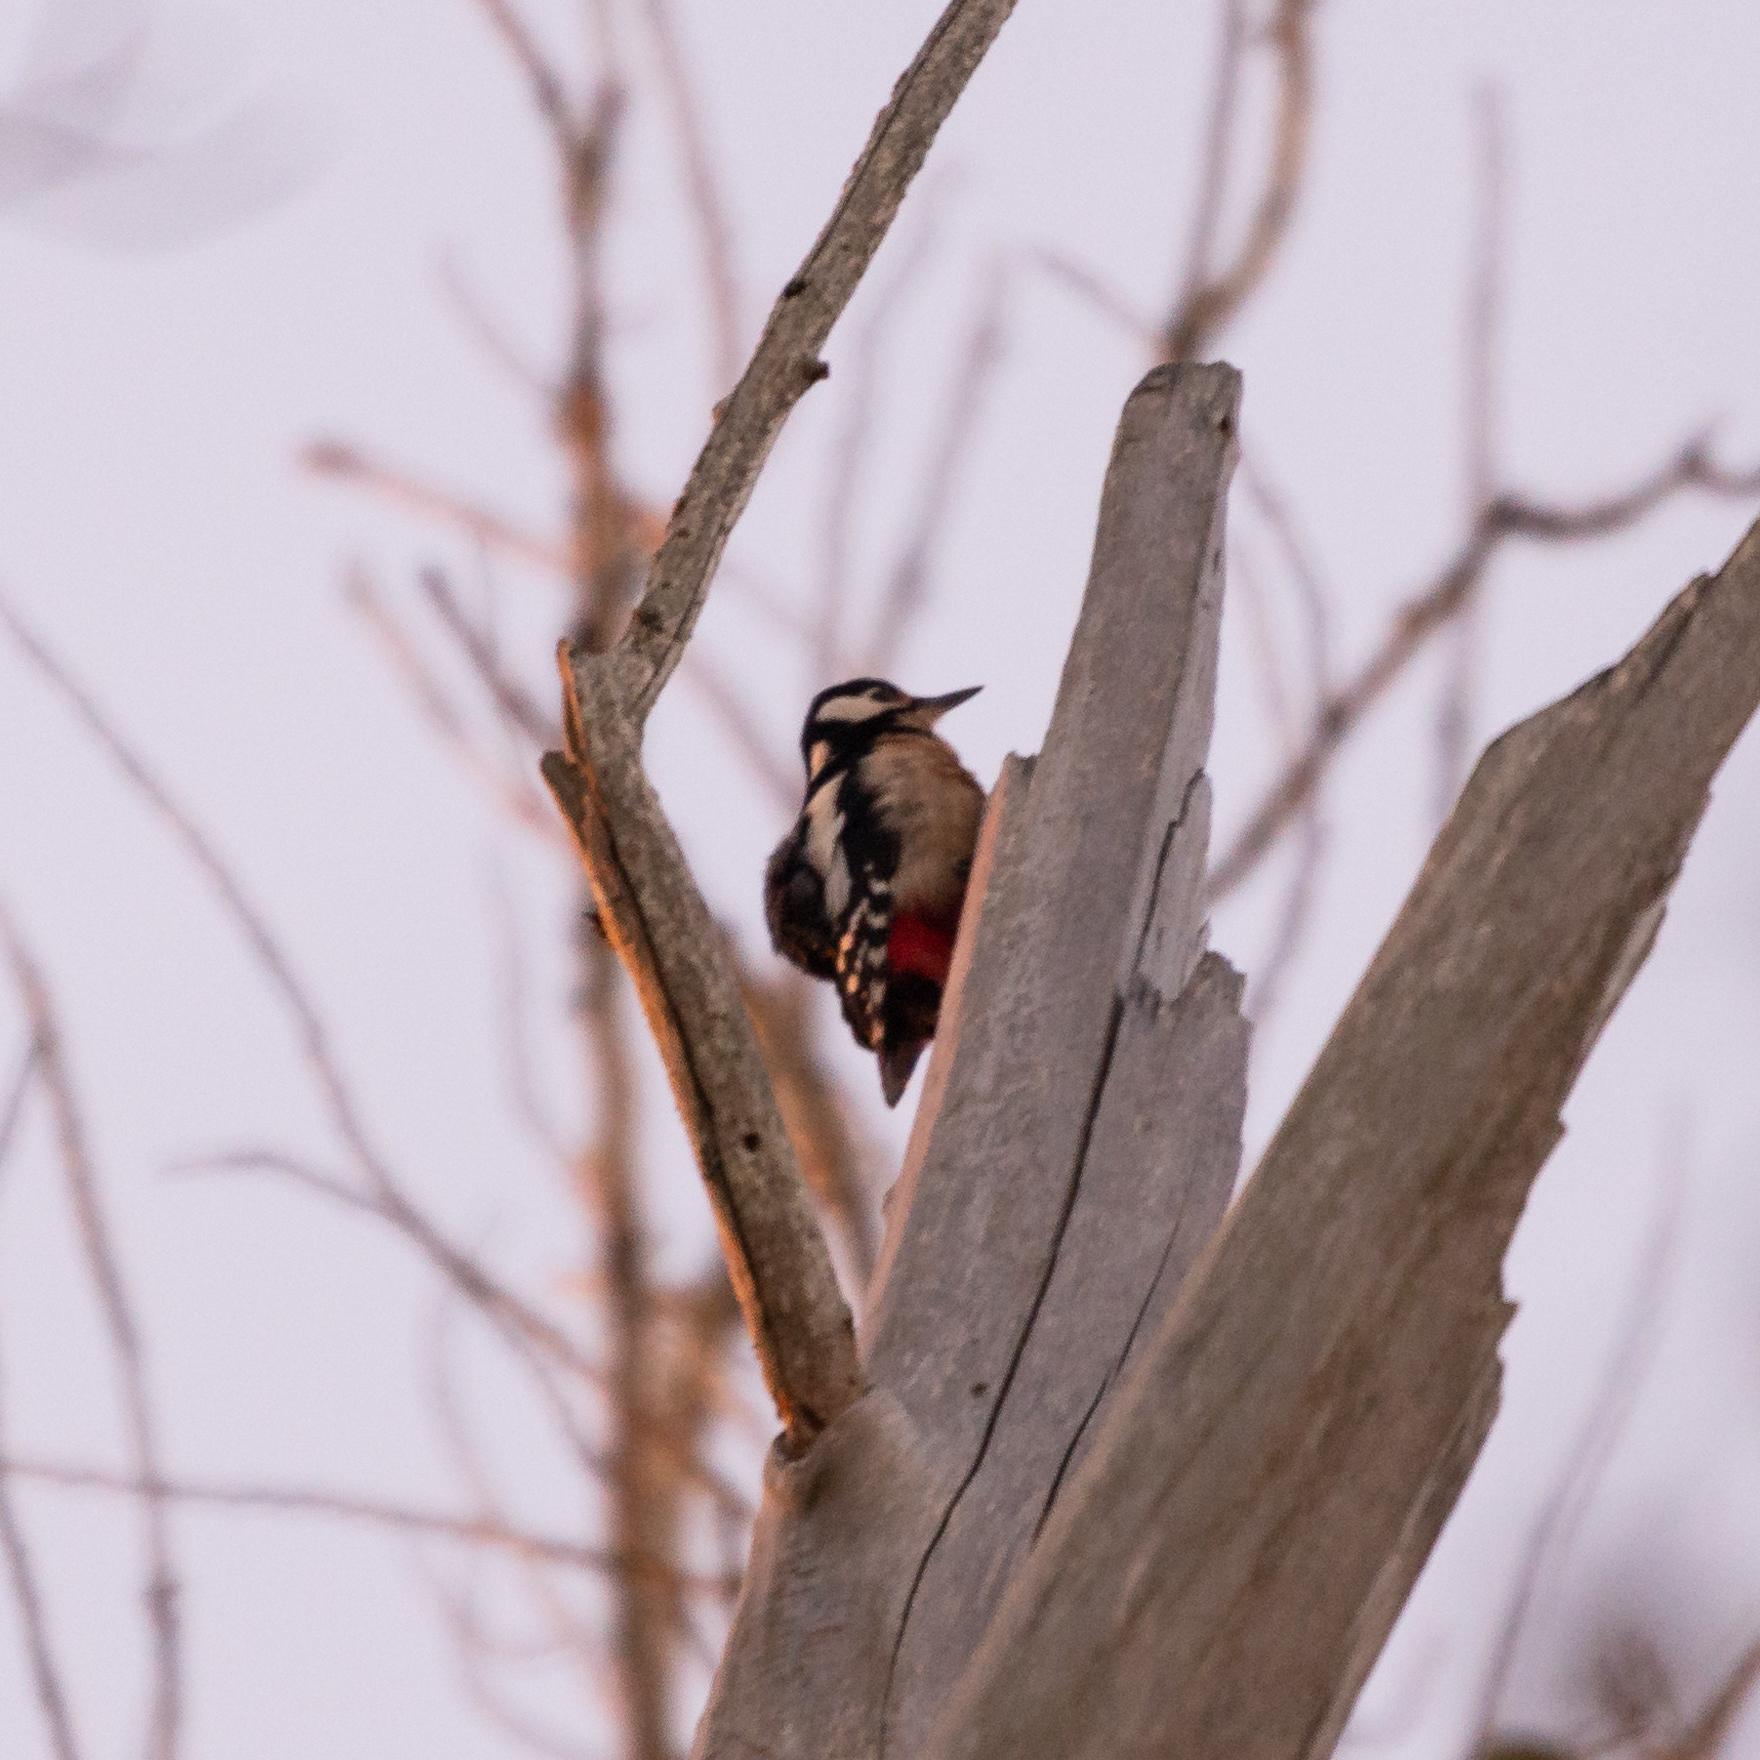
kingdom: Animalia
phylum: Chordata
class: Aves
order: Piciformes
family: Picidae
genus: Dendrocopos
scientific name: Dendrocopos major
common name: Great spotted woodpecker
